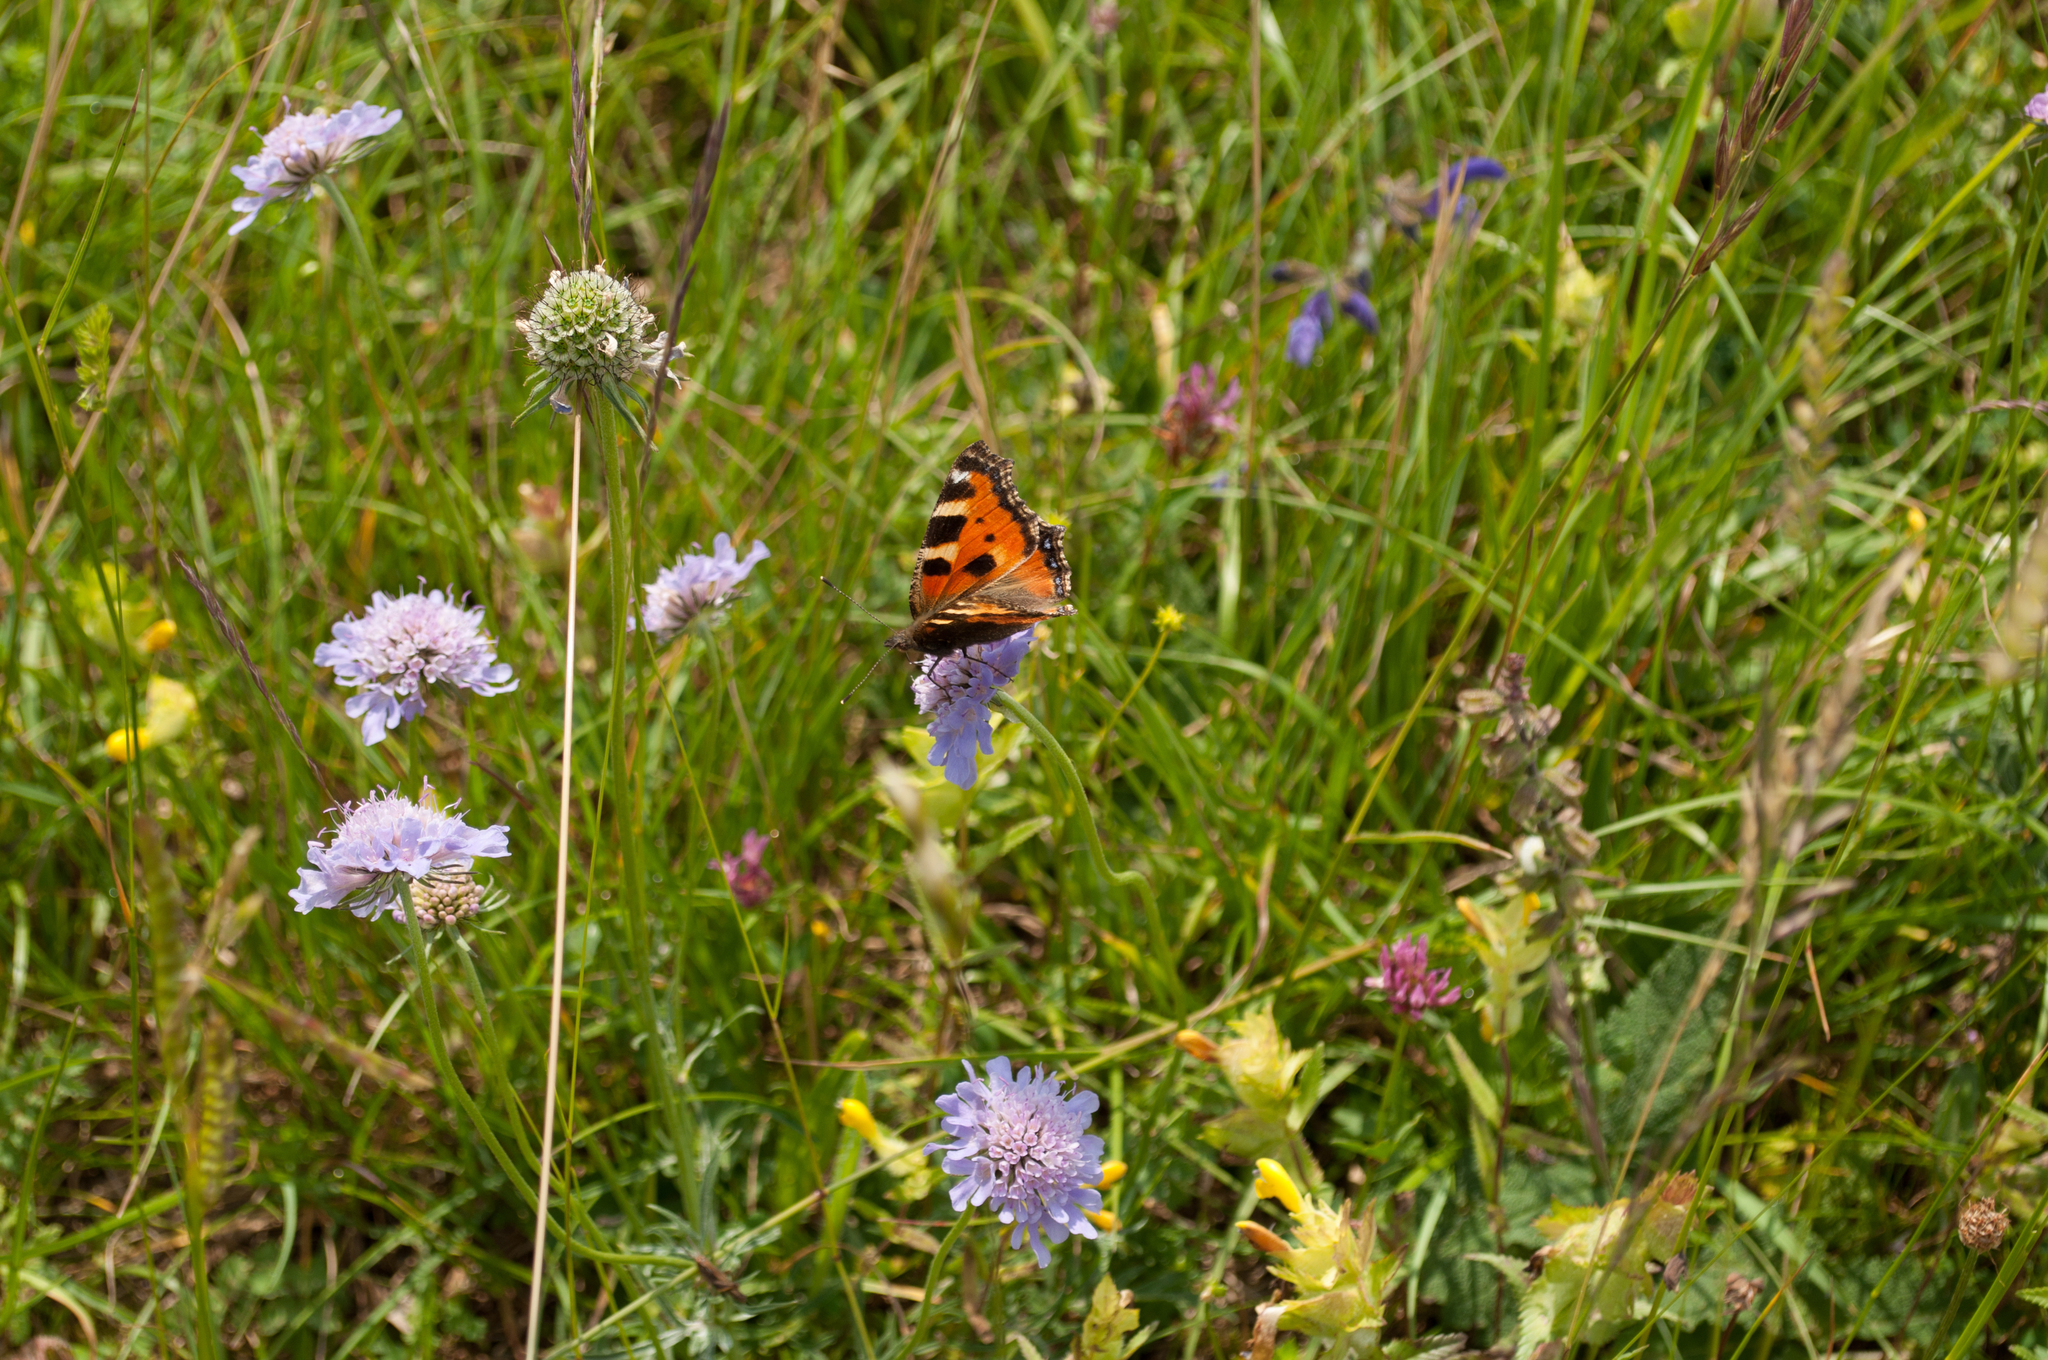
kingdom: Animalia
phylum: Arthropoda
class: Insecta
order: Lepidoptera
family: Nymphalidae
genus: Aglais
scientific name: Aglais urticae
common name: Small tortoiseshell
